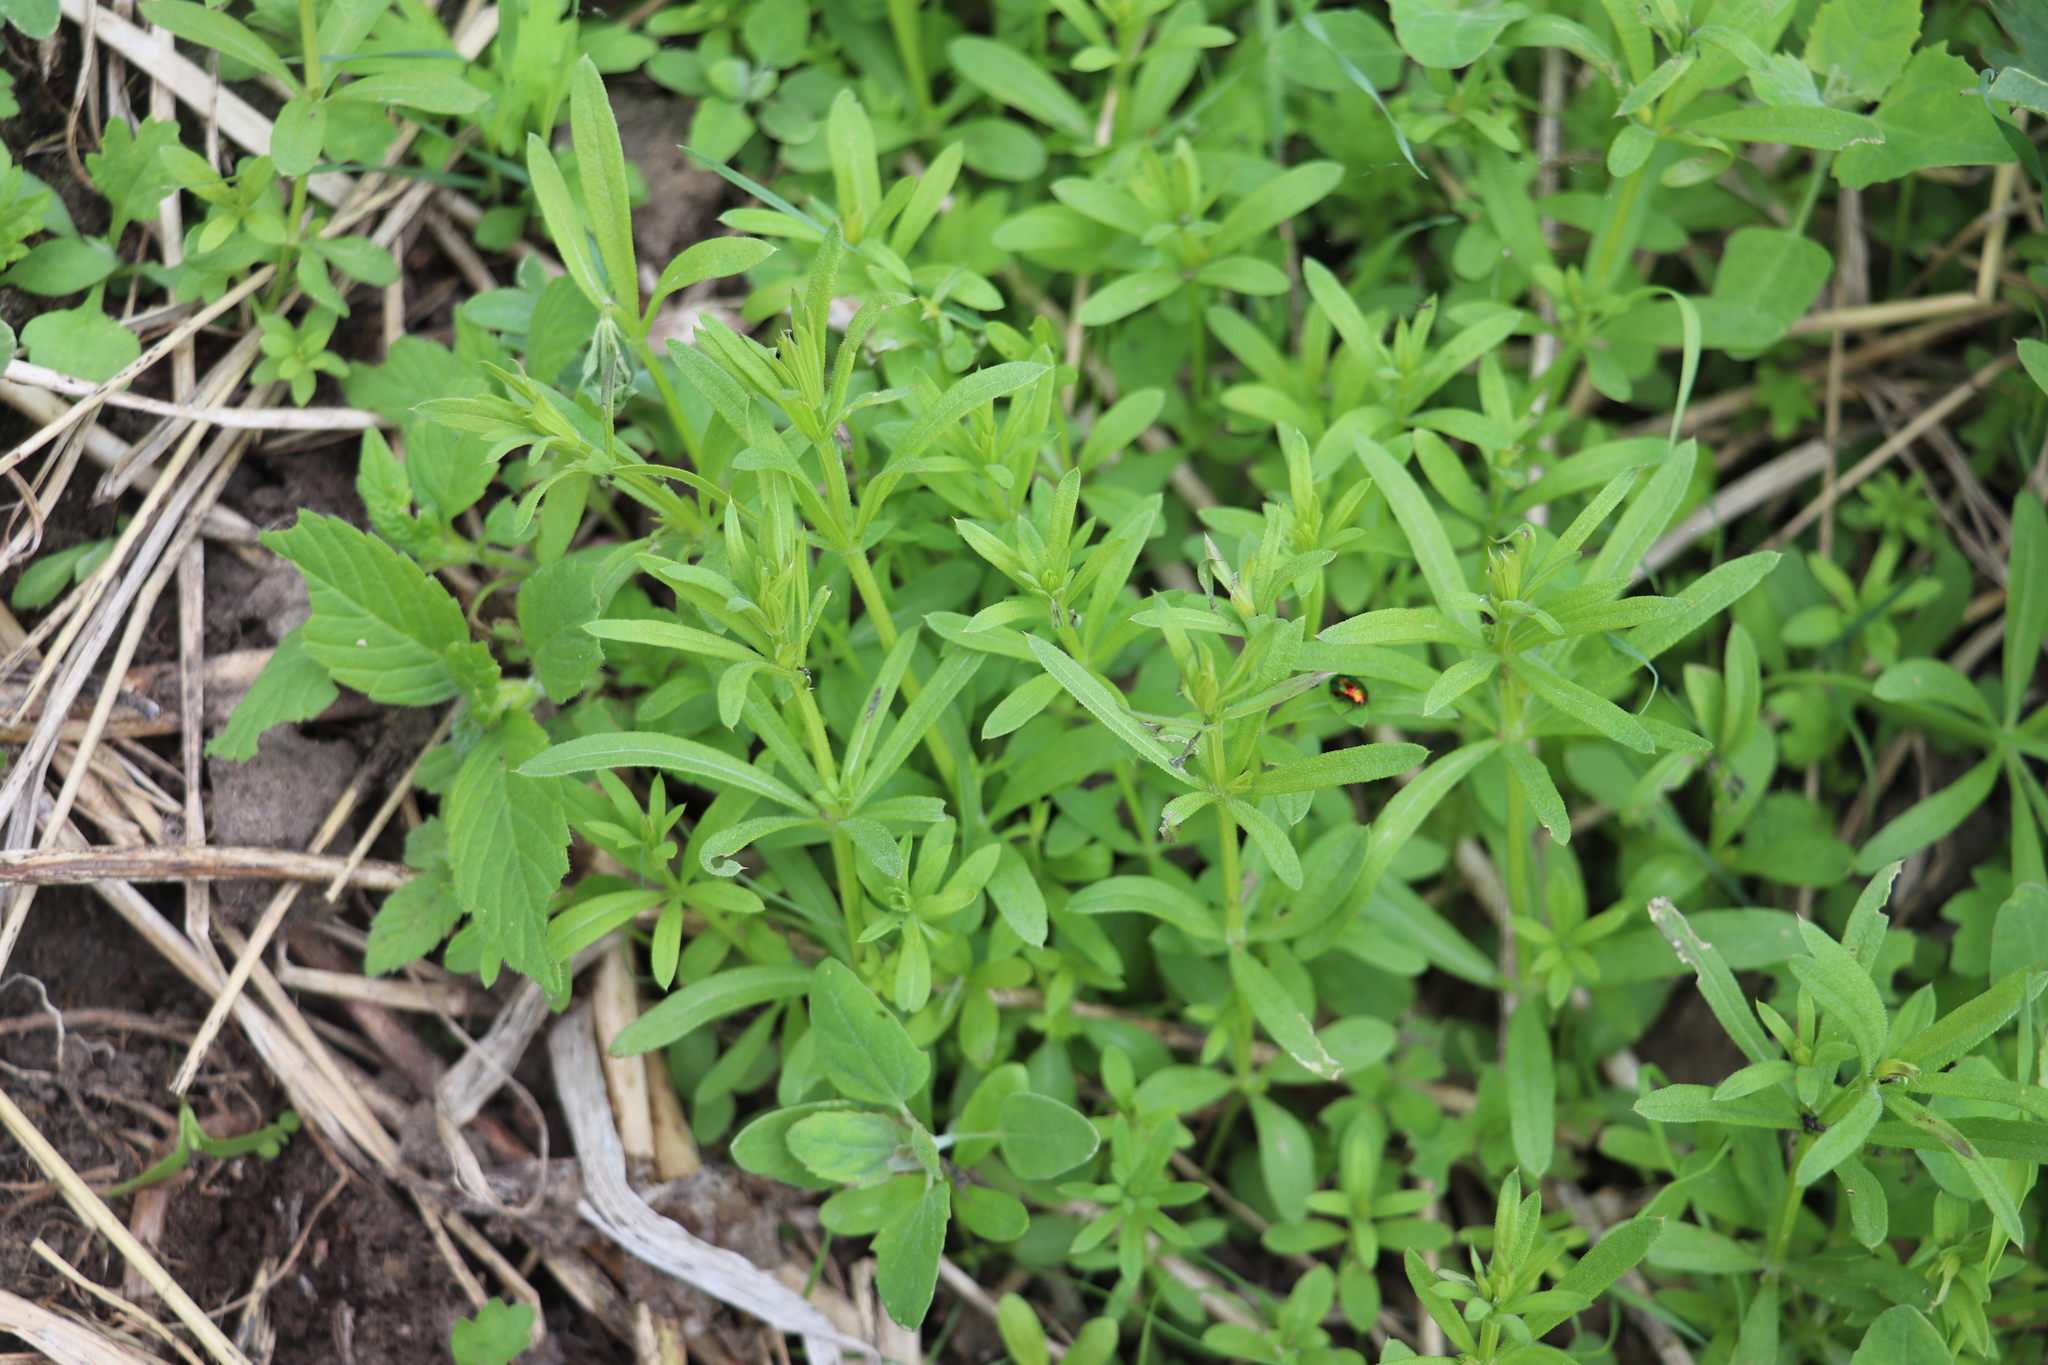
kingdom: Plantae
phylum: Tracheophyta
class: Magnoliopsida
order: Boraginales
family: Boraginaceae
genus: Lappula
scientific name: Lappula squarrosa
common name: European stickseed
